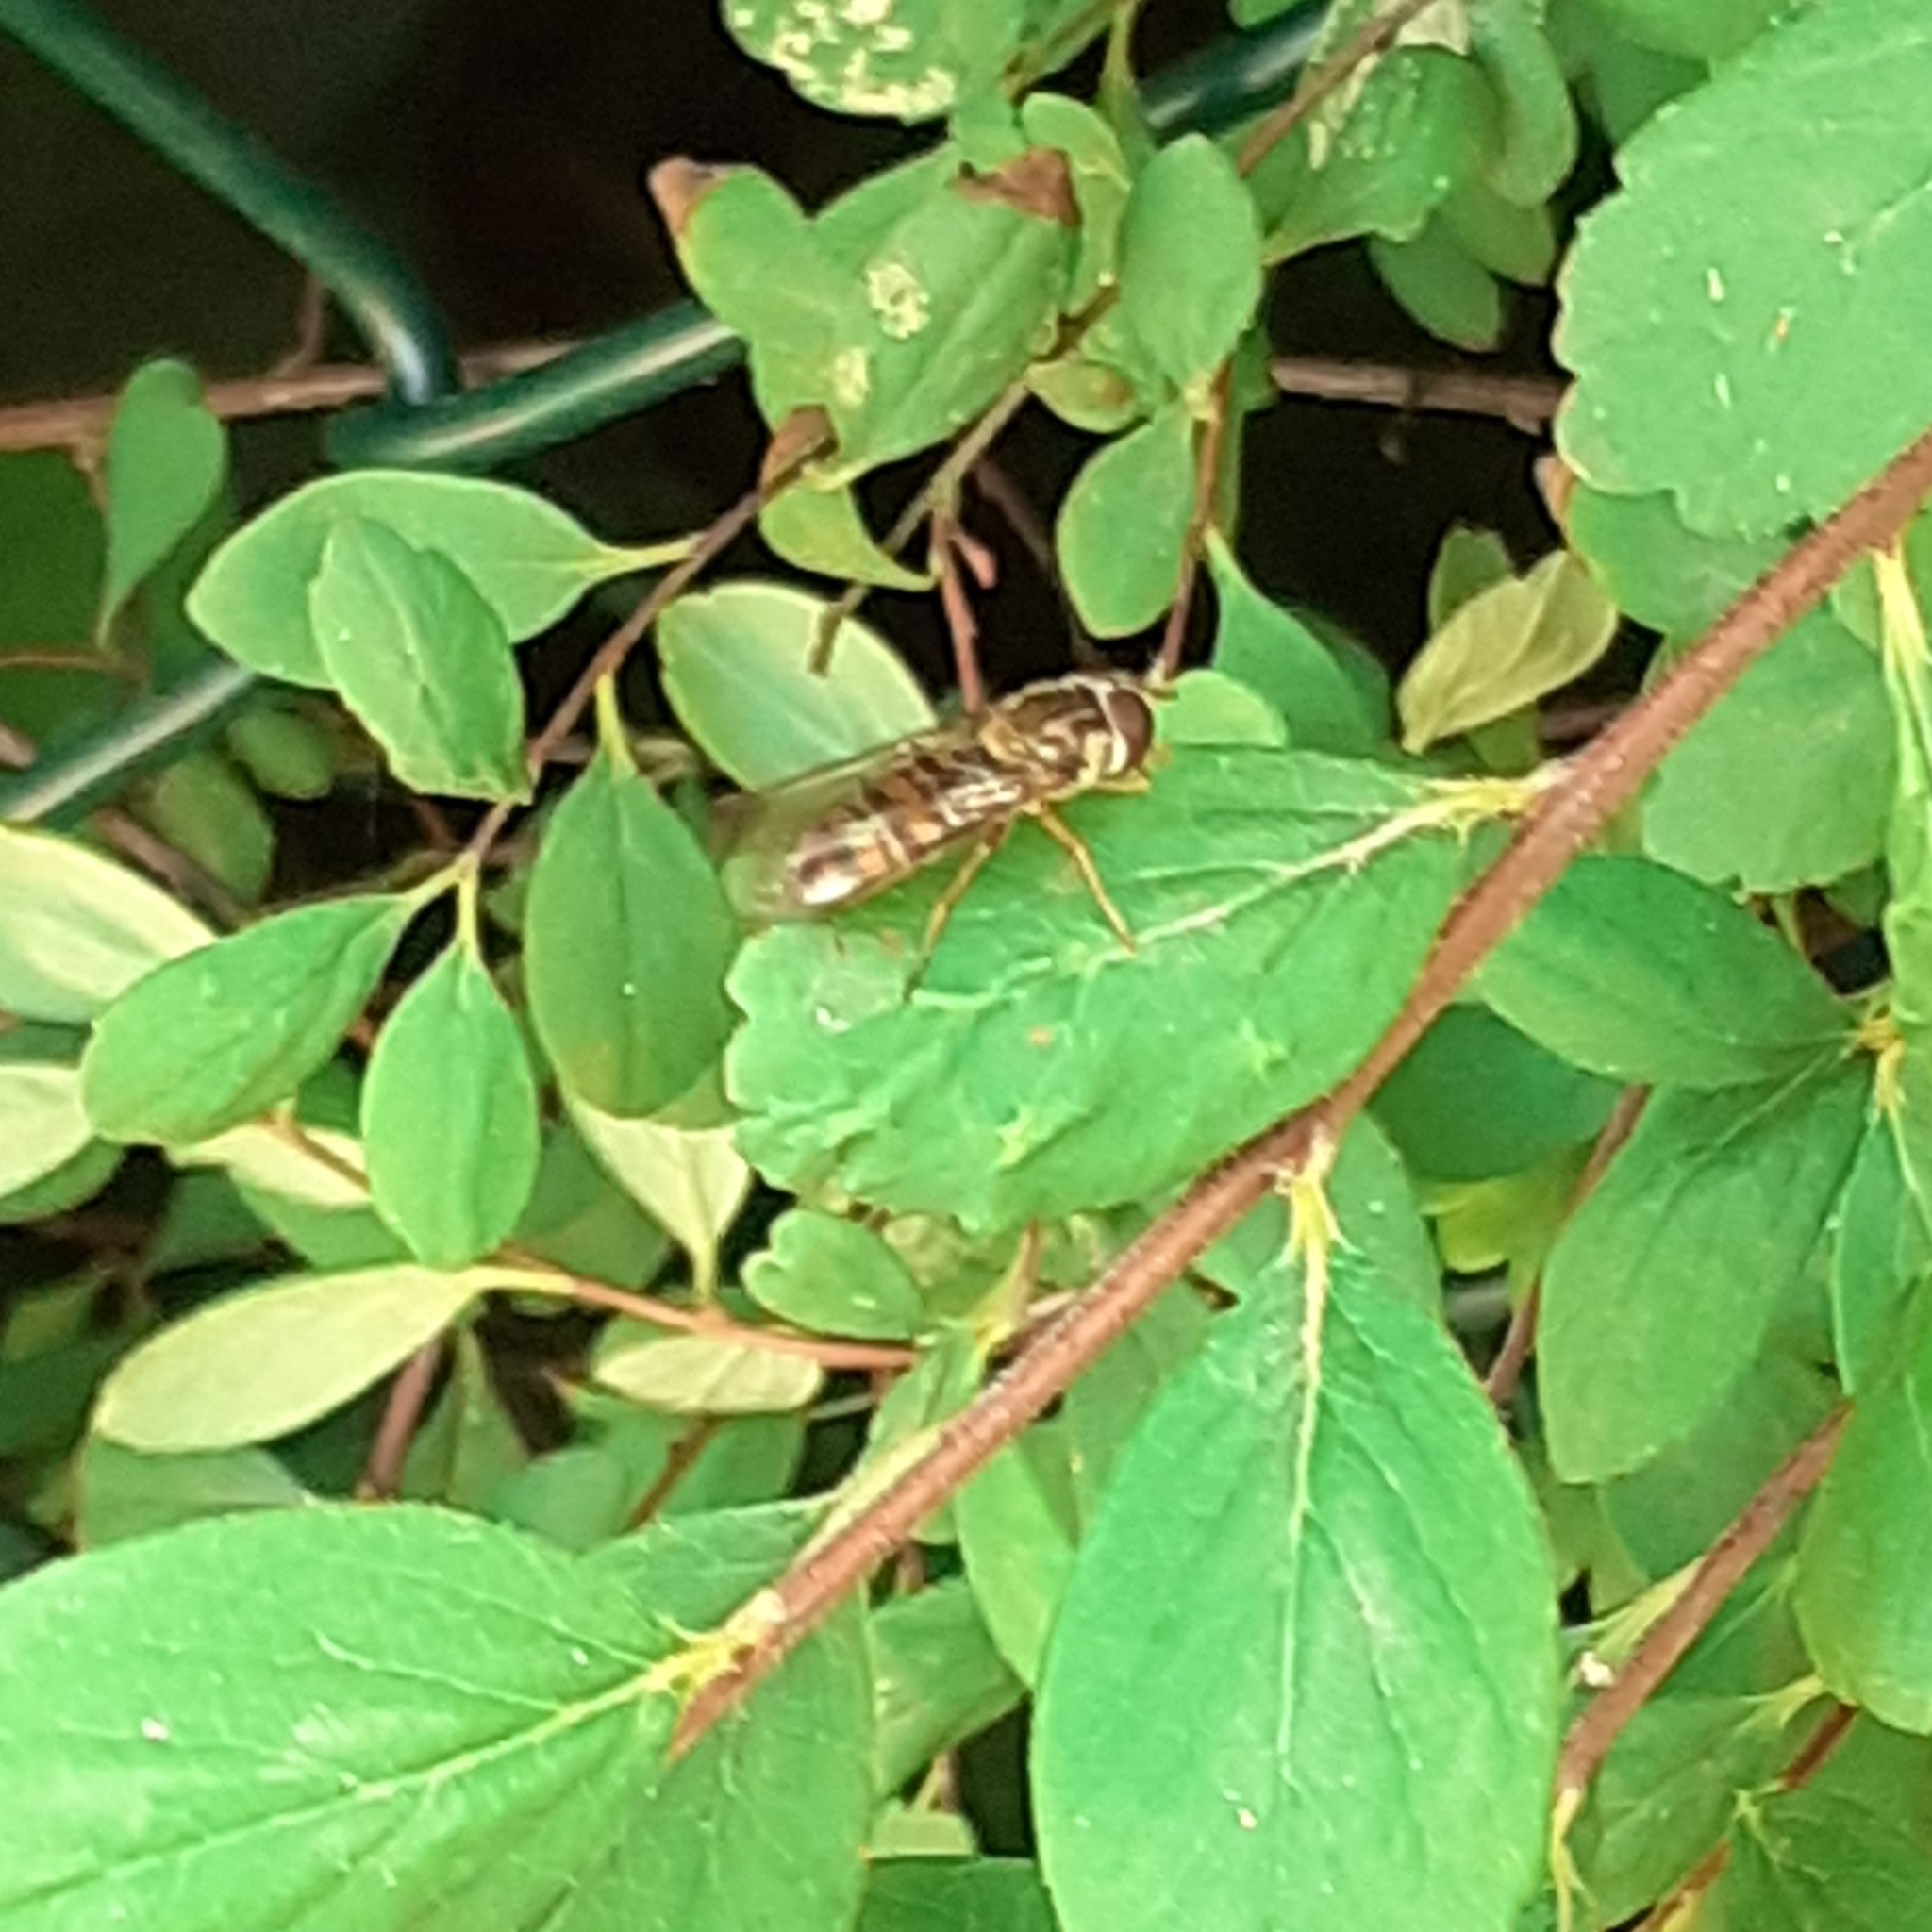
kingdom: Animalia
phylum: Arthropoda
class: Insecta
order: Diptera
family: Syrphidae
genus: Episyrphus
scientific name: Episyrphus balteatus
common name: Marmalade hoverfly
